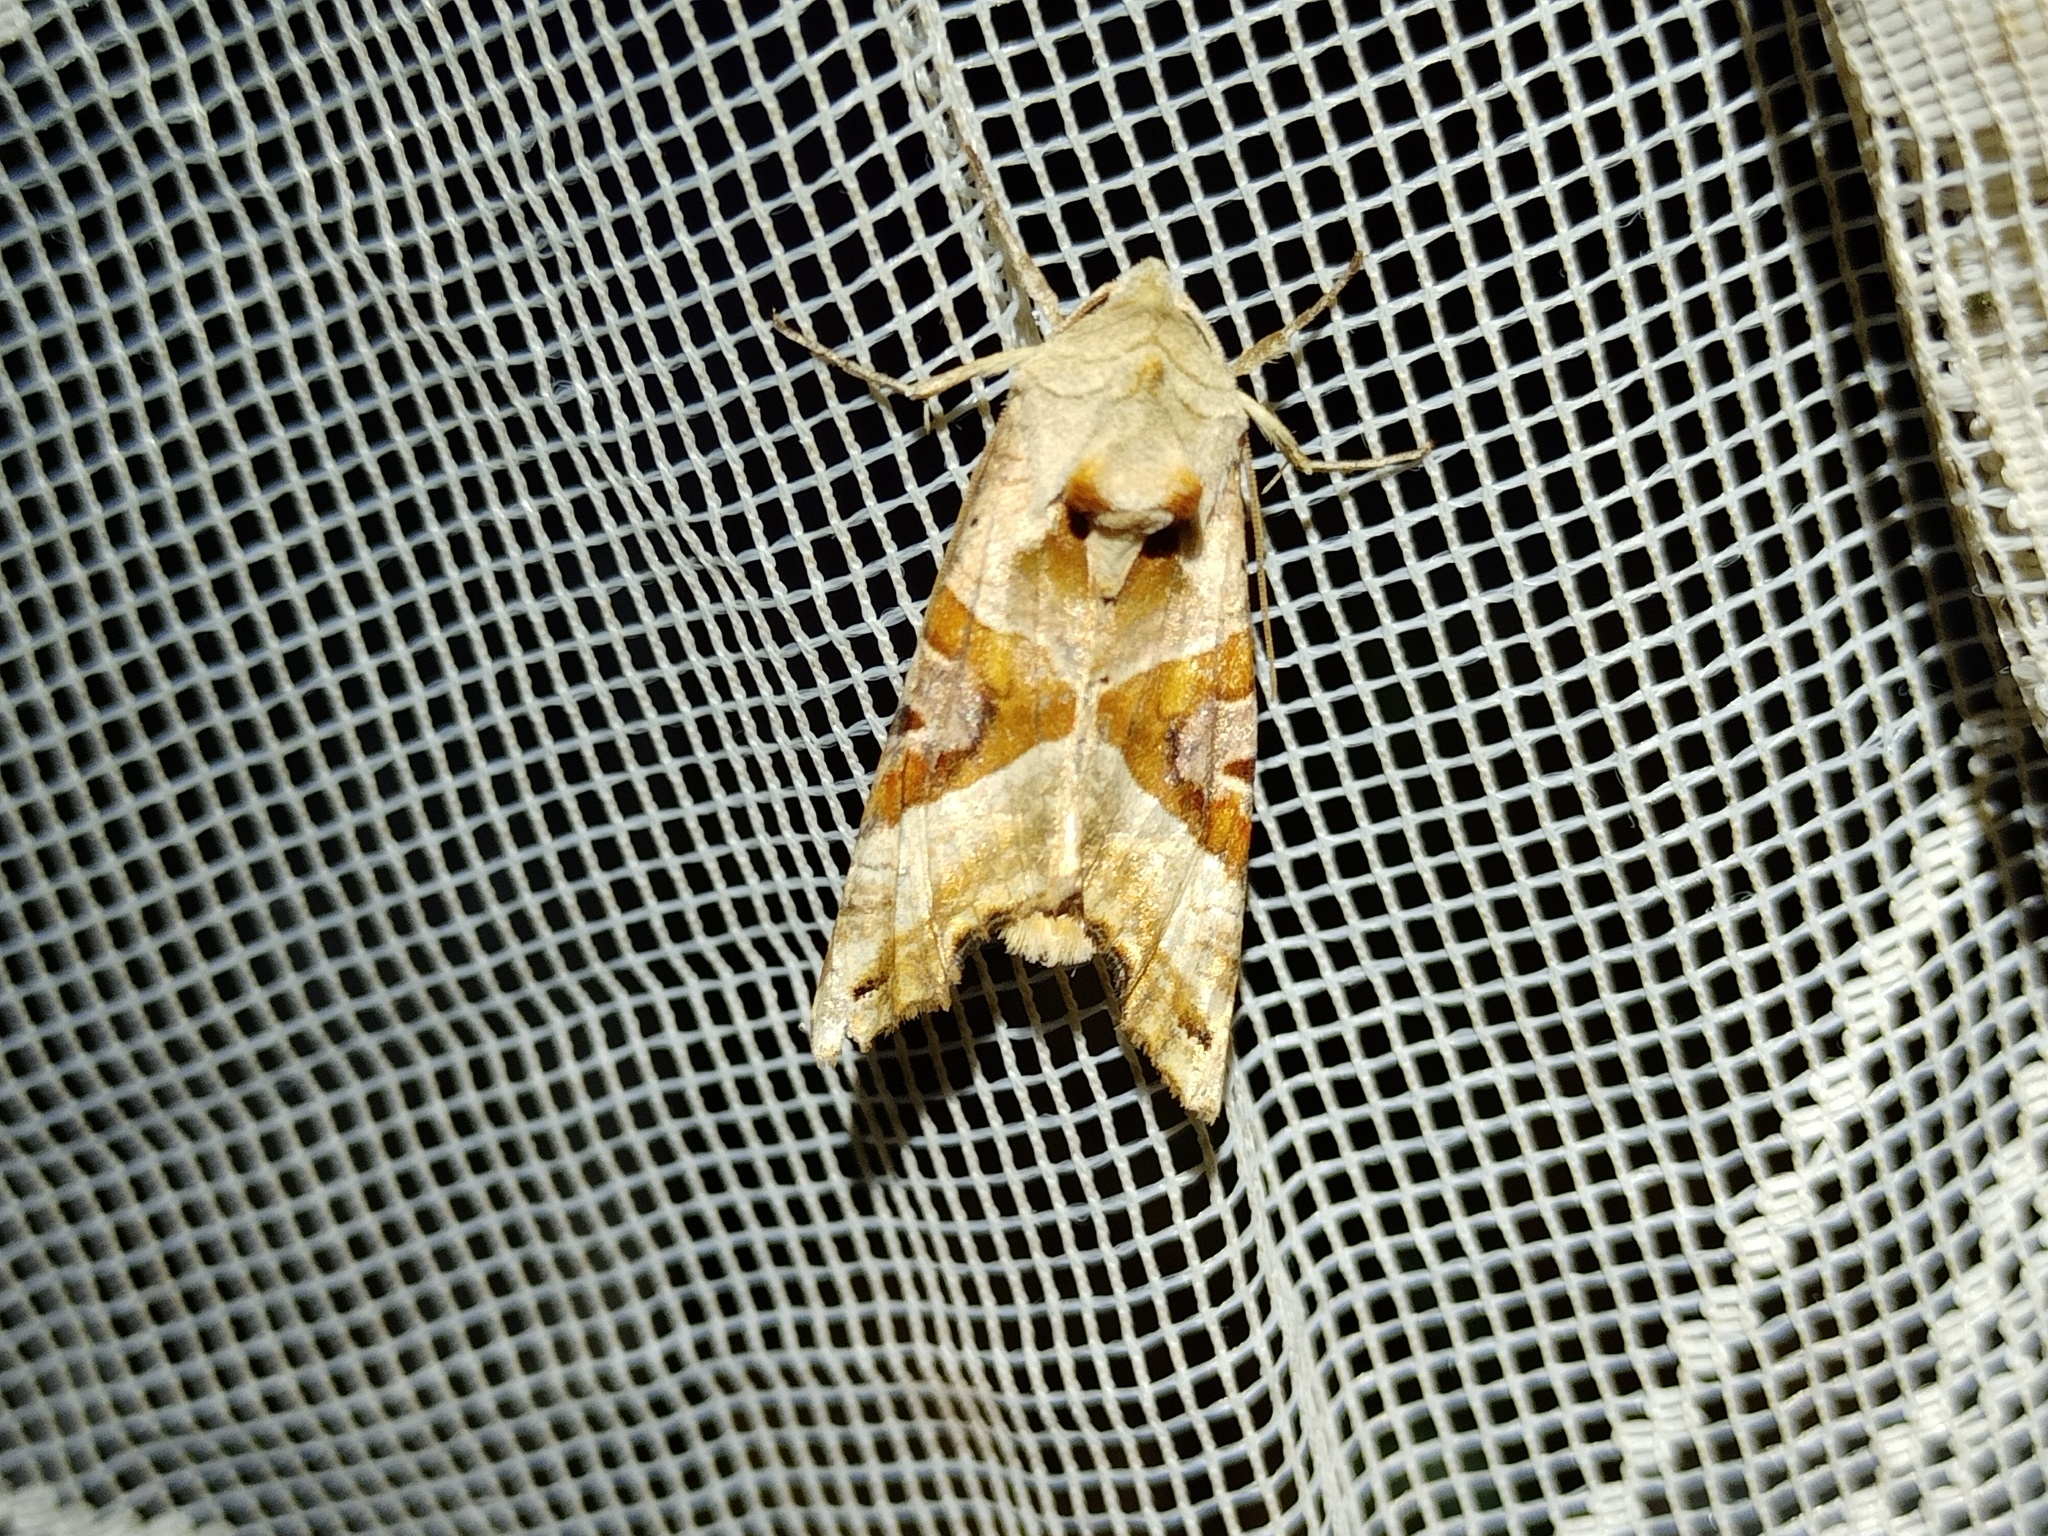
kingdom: Animalia
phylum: Arthropoda
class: Insecta
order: Lepidoptera
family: Noctuidae
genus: Phlogophora
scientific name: Phlogophora meticulosa
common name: Angle shades
